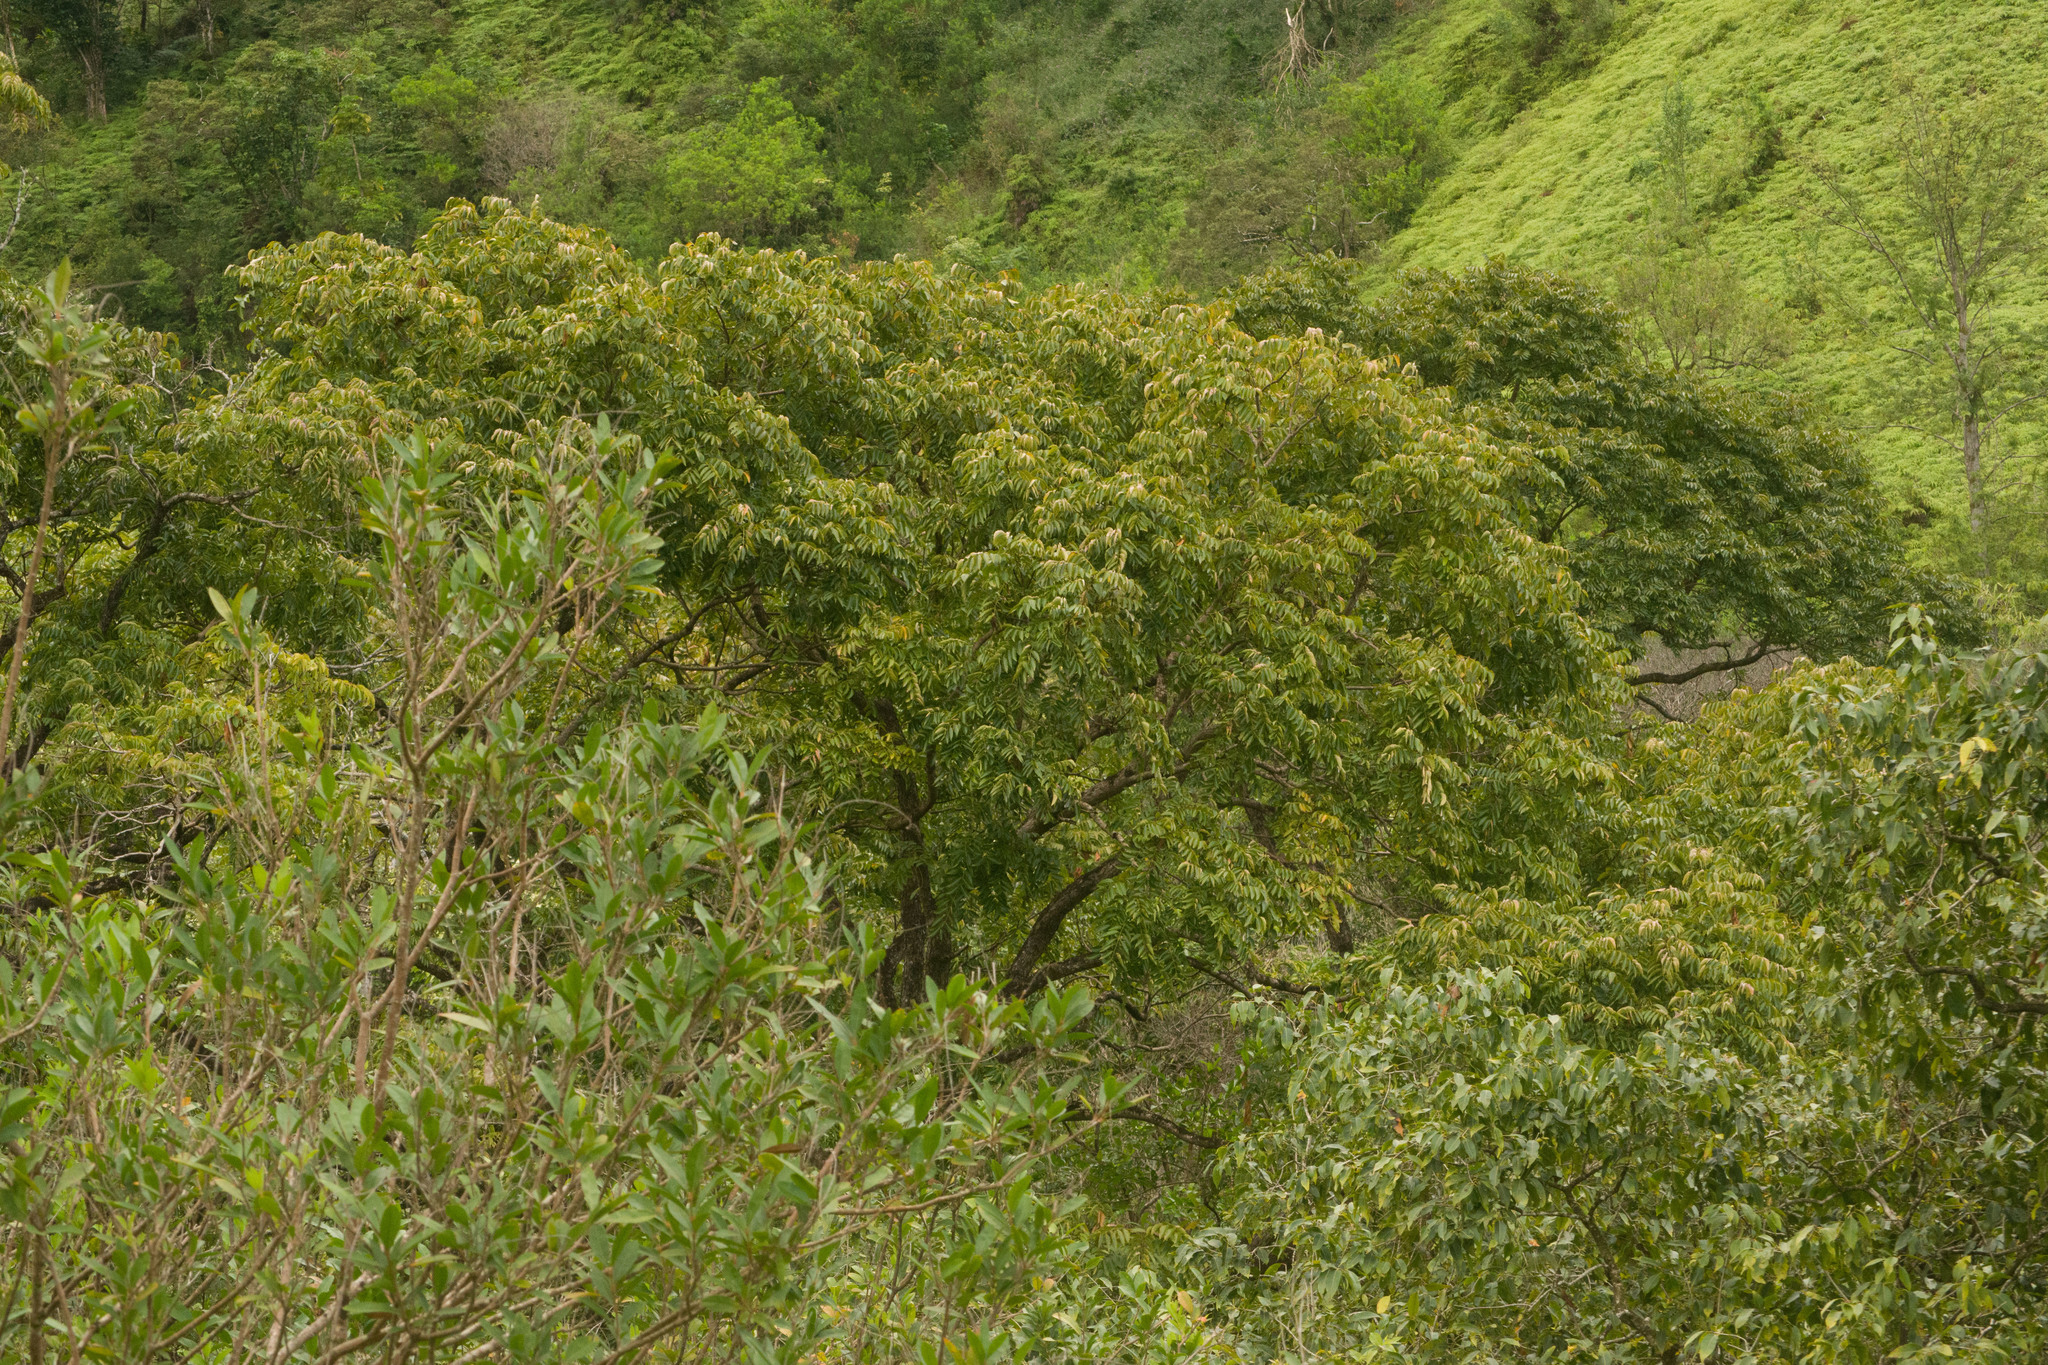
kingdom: Plantae
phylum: Tracheophyta
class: Magnoliopsida
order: Sapindales
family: Meliaceae
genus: Swietenia
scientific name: Swietenia mahagoni
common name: West indian mahogany
